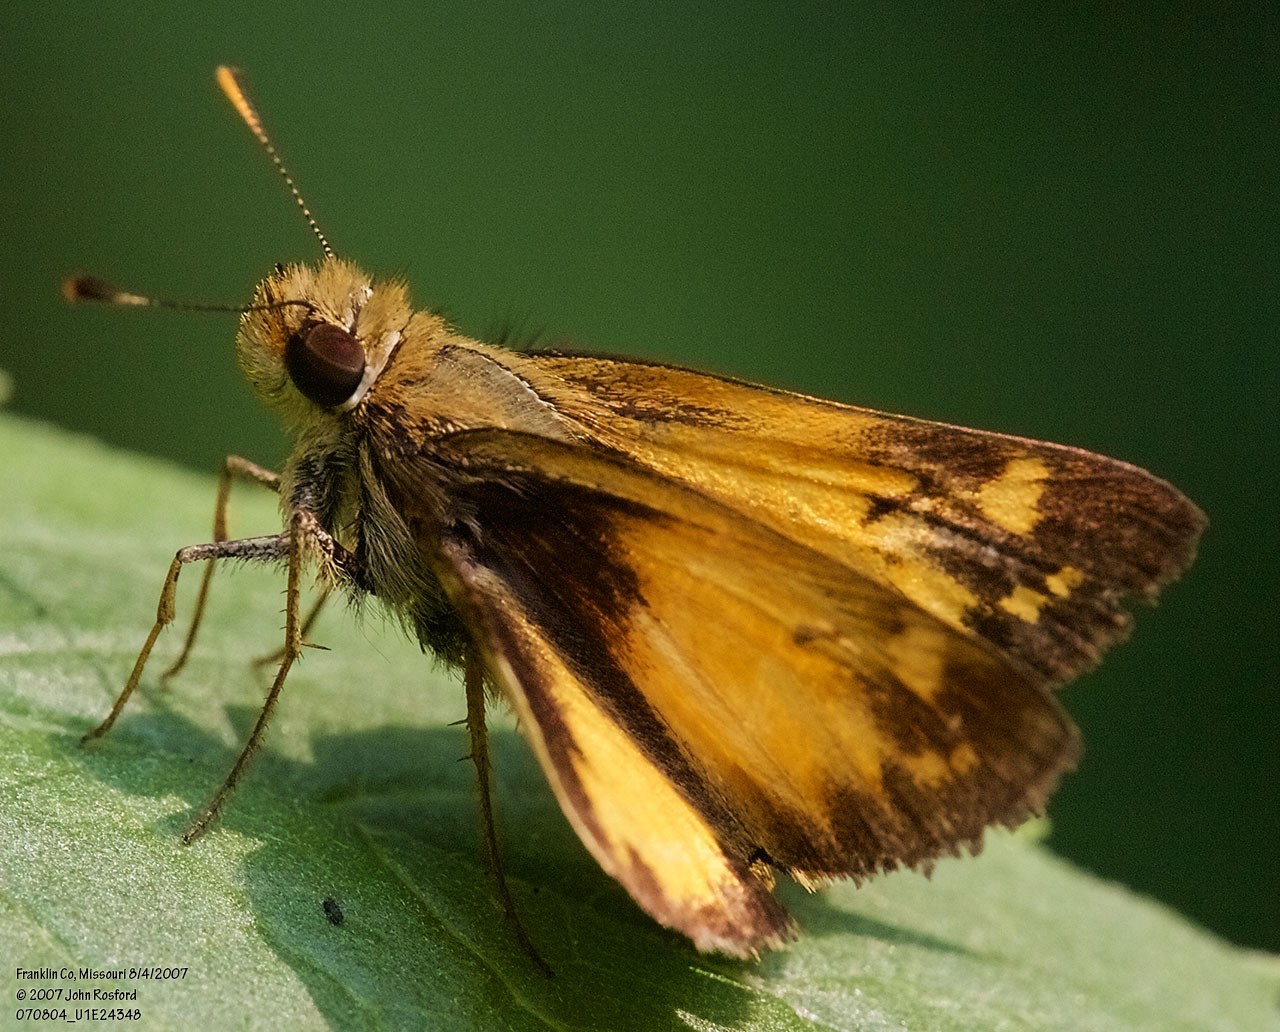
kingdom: Animalia
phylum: Arthropoda
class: Insecta
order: Lepidoptera
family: Hesperiidae
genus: Lon
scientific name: Lon zabulon
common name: Zabulon skipper
